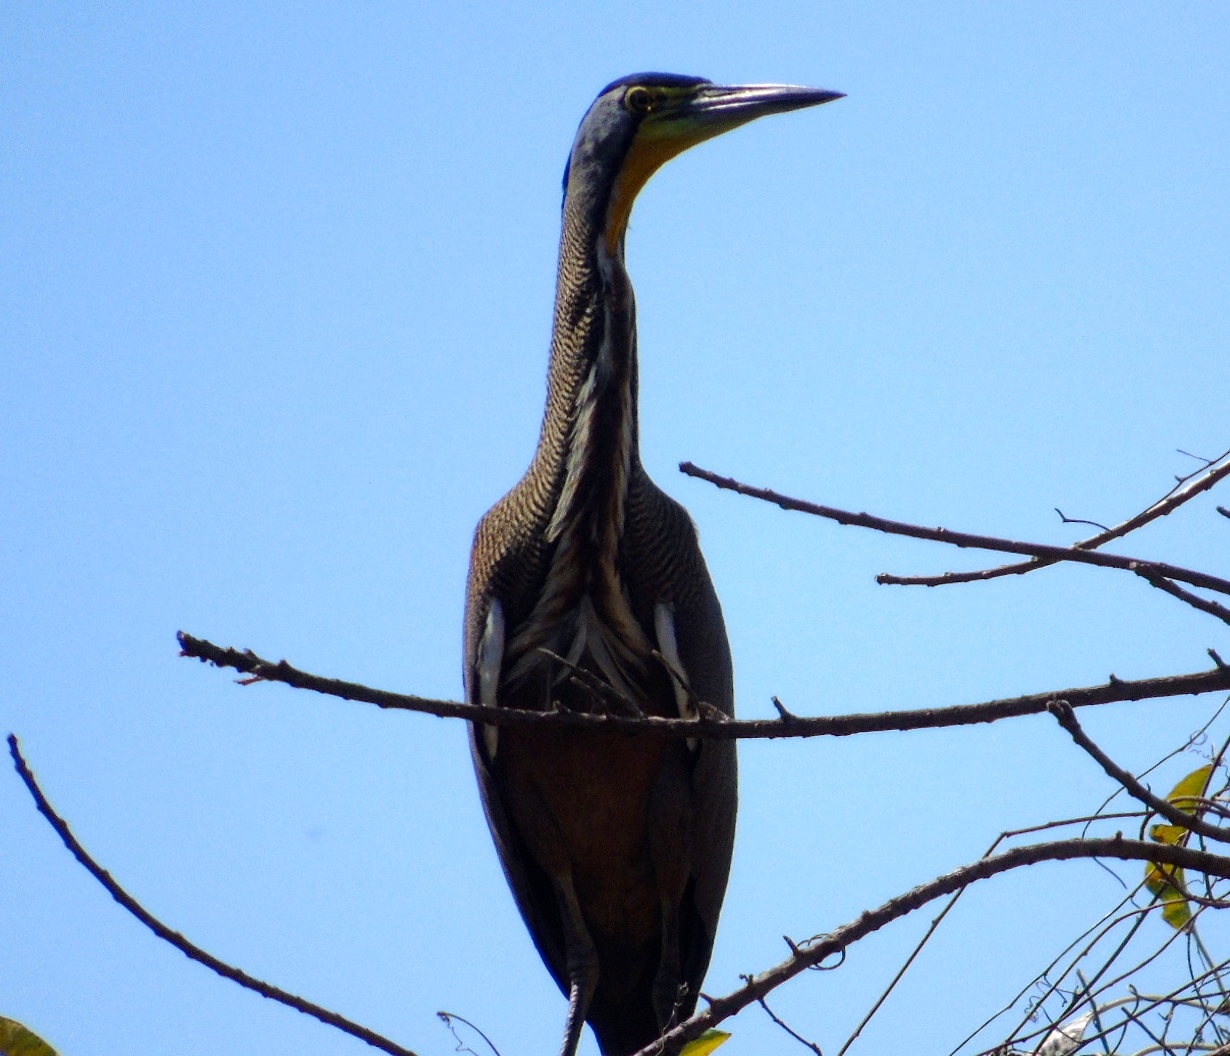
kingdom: Animalia
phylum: Chordata
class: Aves
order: Pelecaniformes
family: Ardeidae
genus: Tigrisoma
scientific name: Tigrisoma mexicanum
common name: Bare-throated tiger-heron
